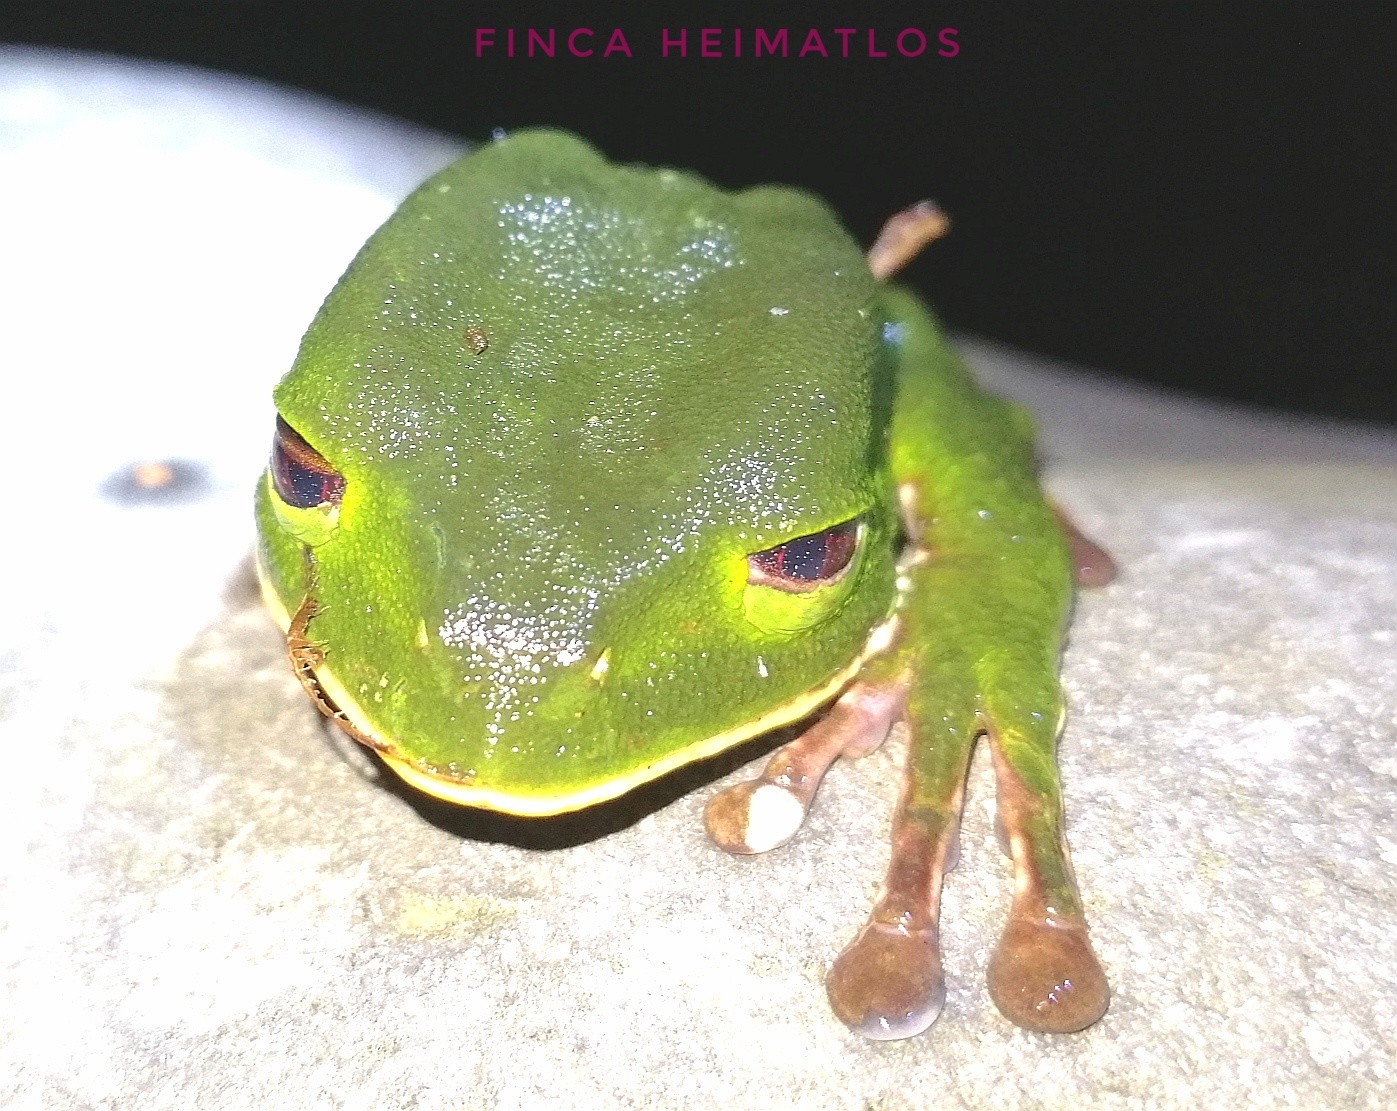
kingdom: Animalia
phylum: Chordata
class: Amphibia
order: Anura
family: Phyllomedusidae
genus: Phyllomedusa
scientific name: Phyllomedusa tarsius
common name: Brownbelly leaf frog
